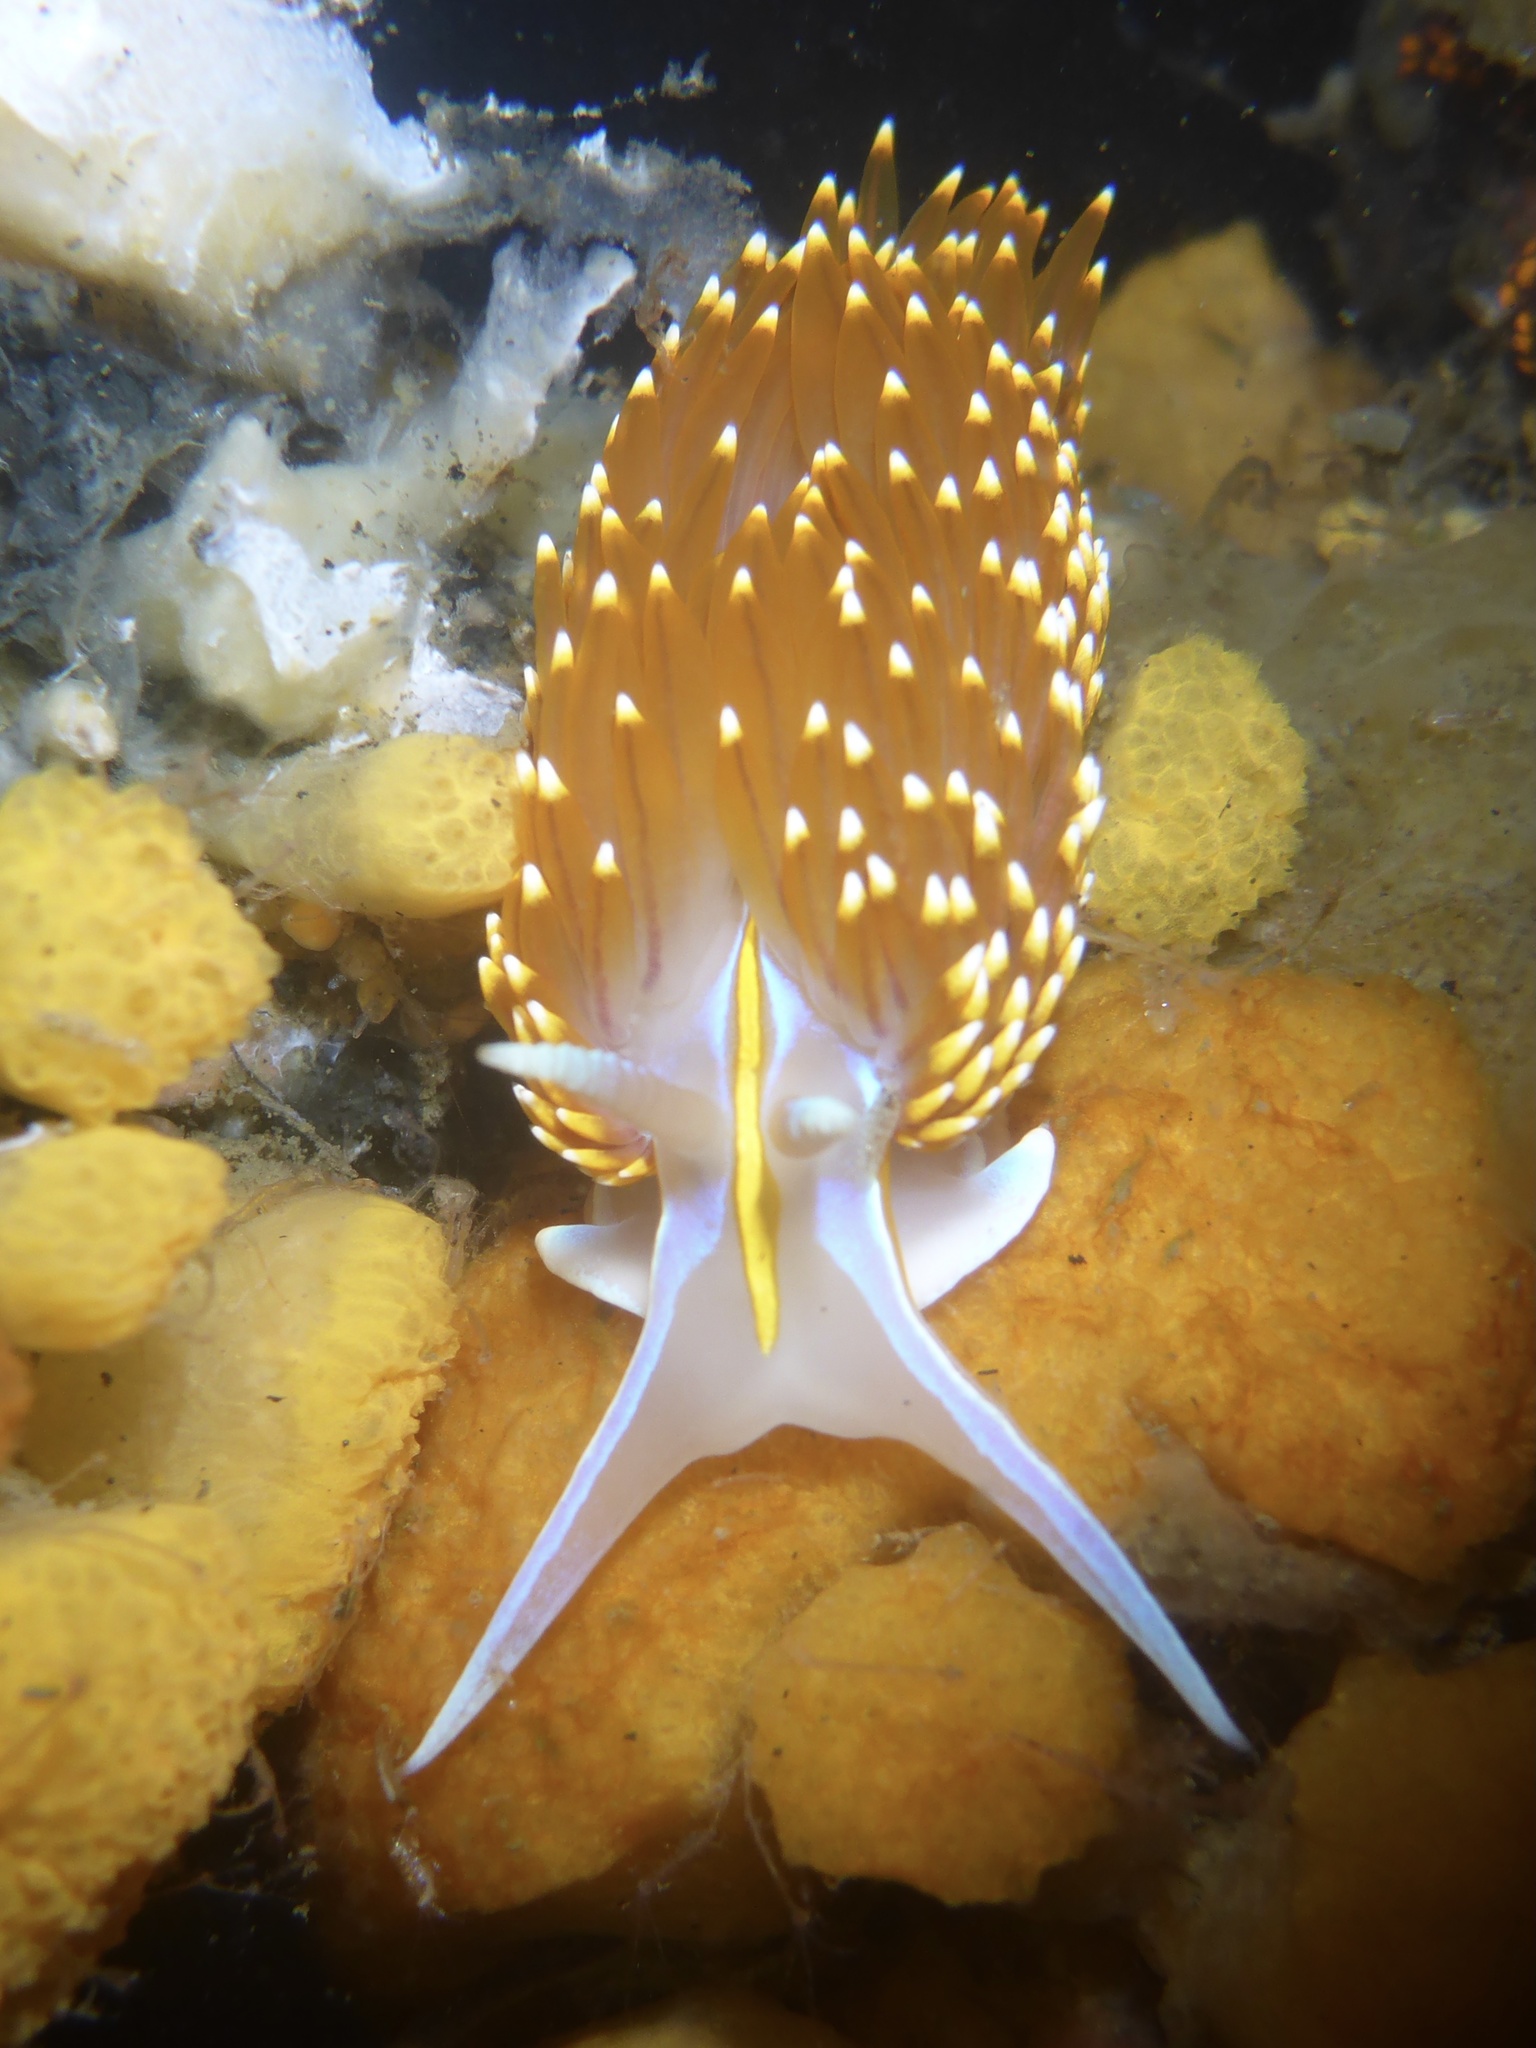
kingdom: Animalia
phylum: Mollusca
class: Gastropoda
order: Nudibranchia
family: Myrrhinidae
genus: Hermissenda
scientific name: Hermissenda opalescens
